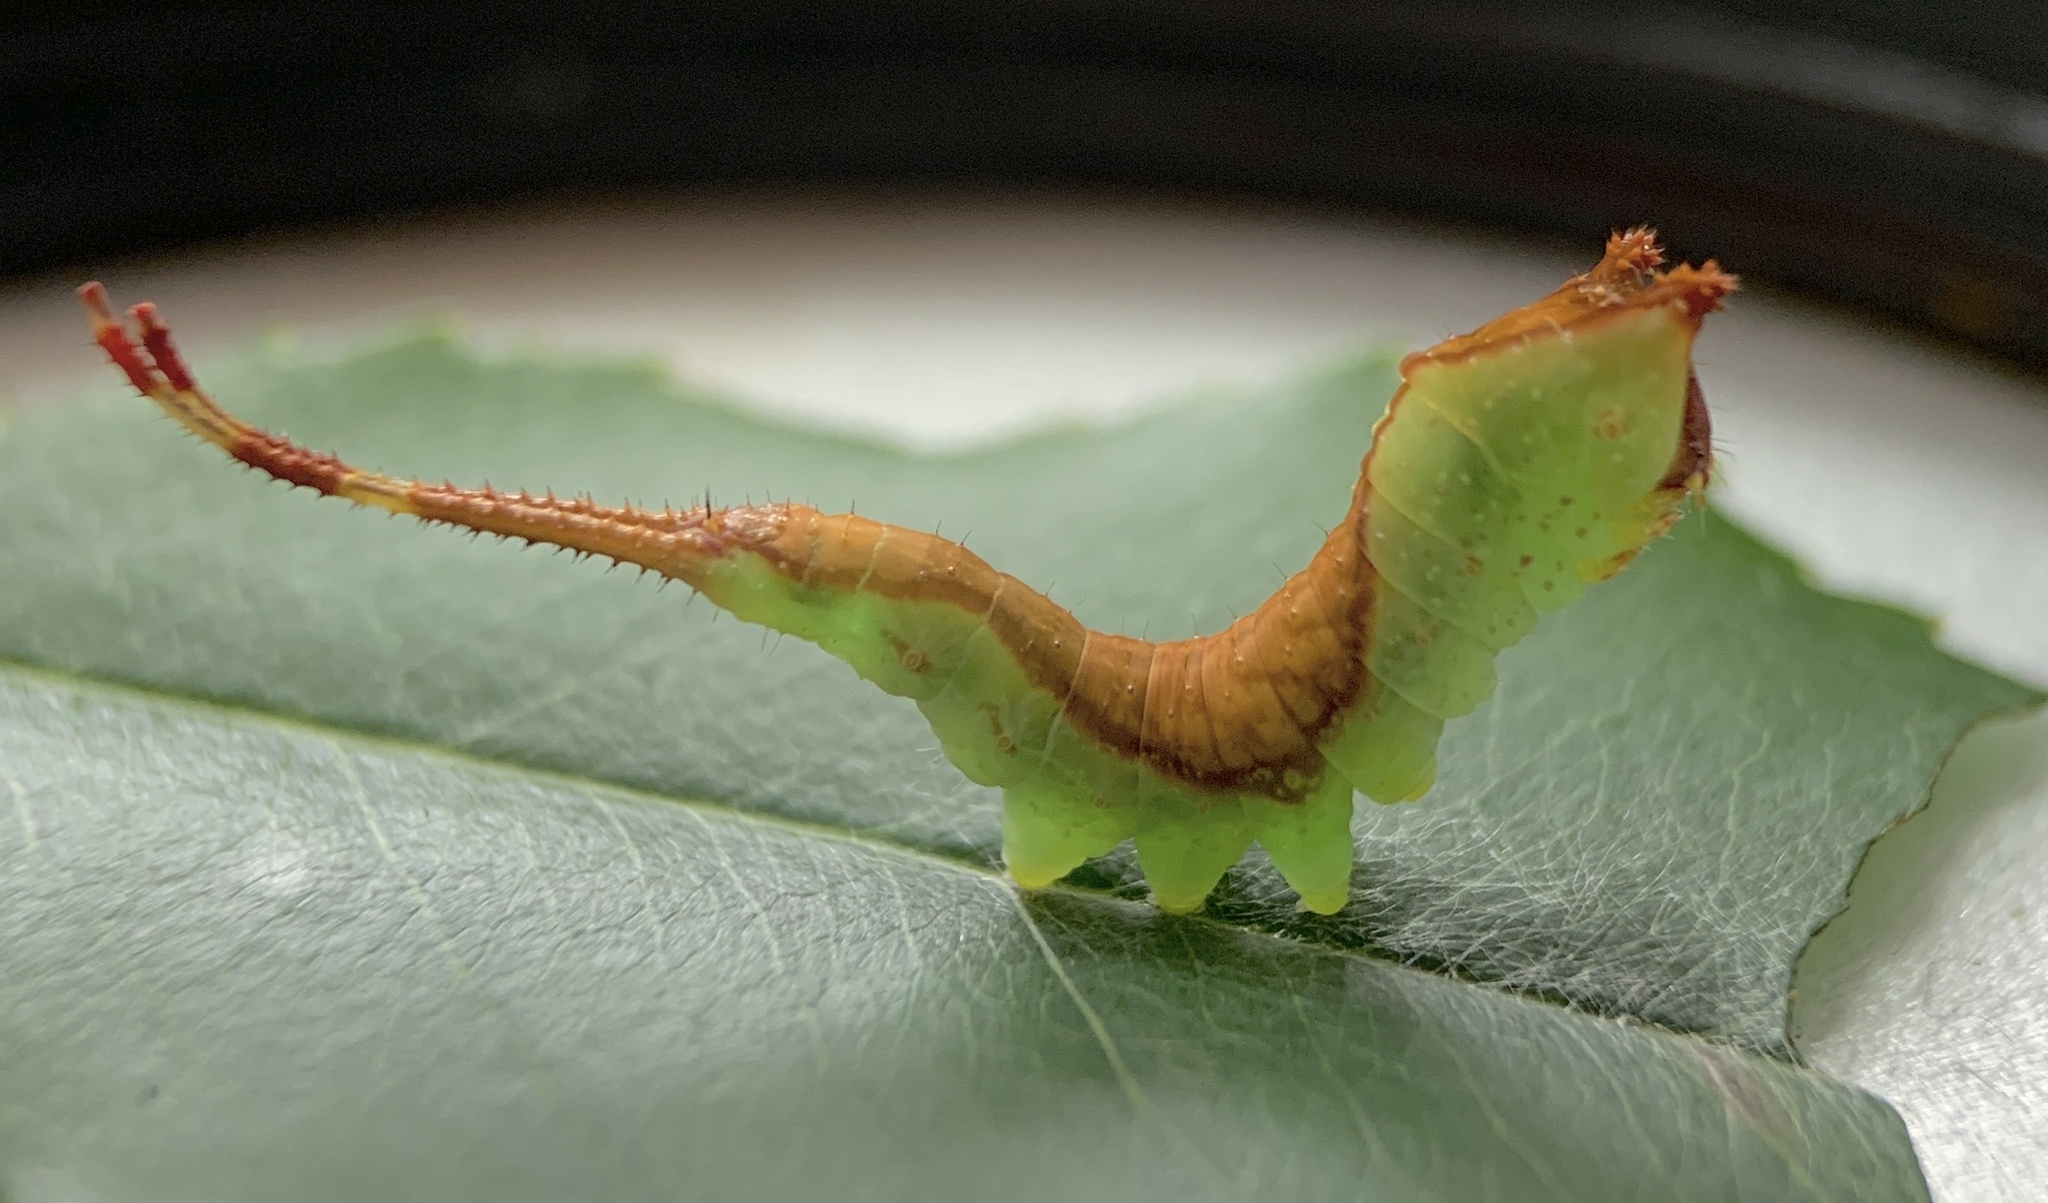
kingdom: Animalia
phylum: Arthropoda
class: Insecta
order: Lepidoptera
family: Notodontidae
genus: Furcula
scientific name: Furcula borealis
